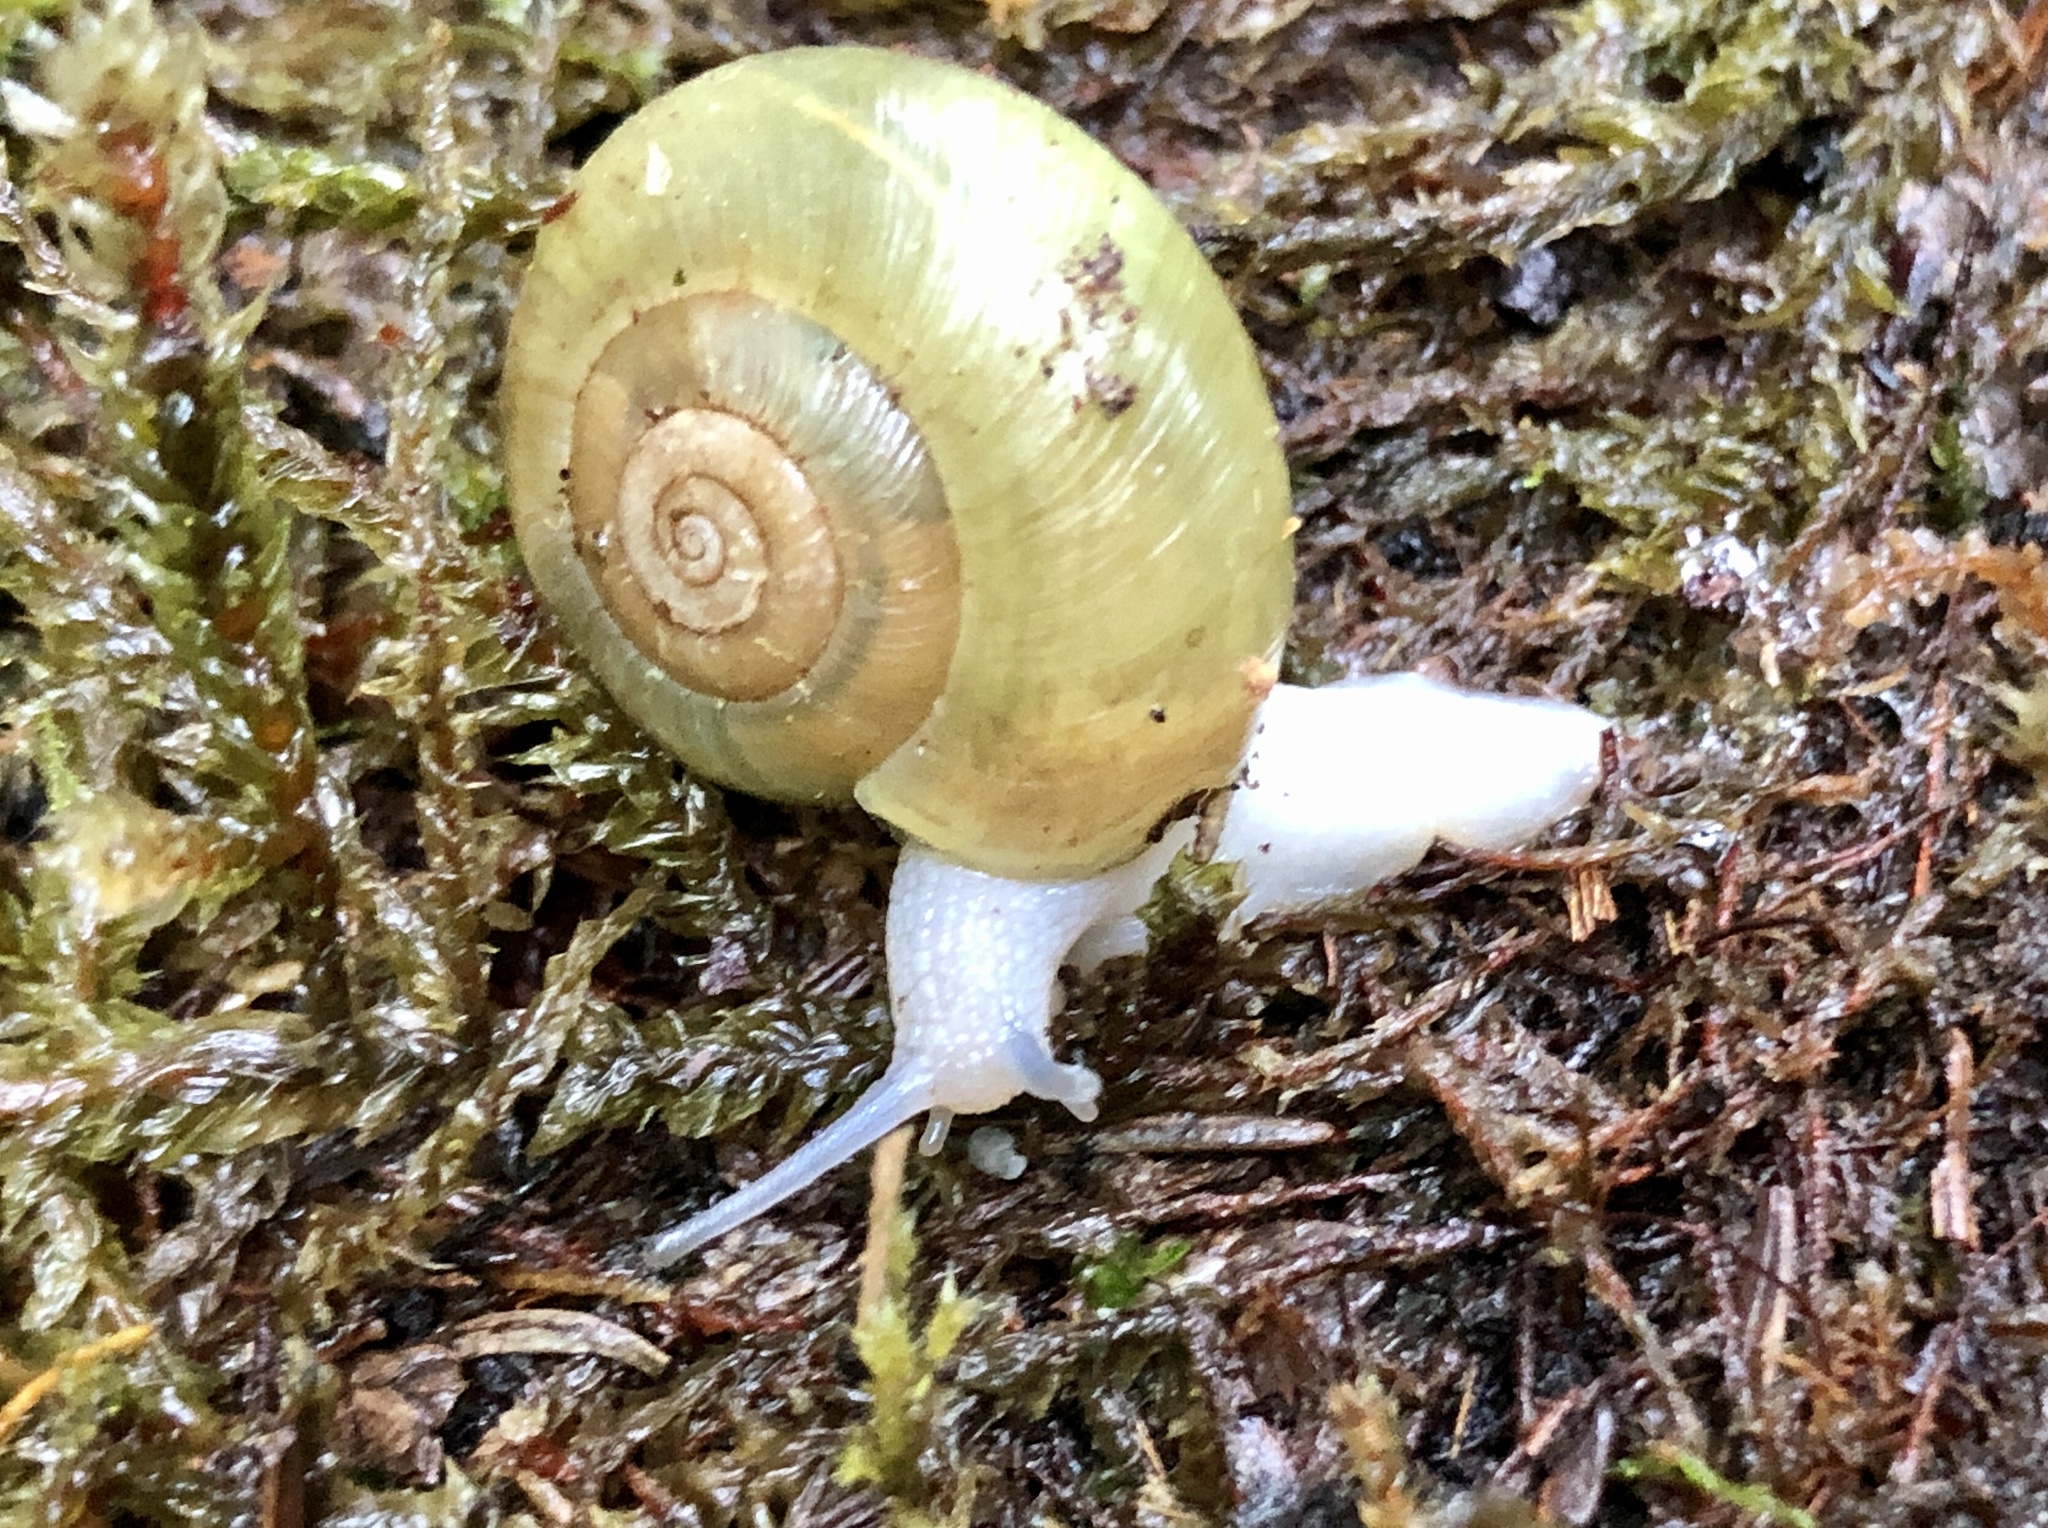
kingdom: Animalia
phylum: Mollusca
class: Gastropoda
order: Stylommatophora
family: Haplotrematidae
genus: Haplotrema
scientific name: Haplotrema vancouverense
